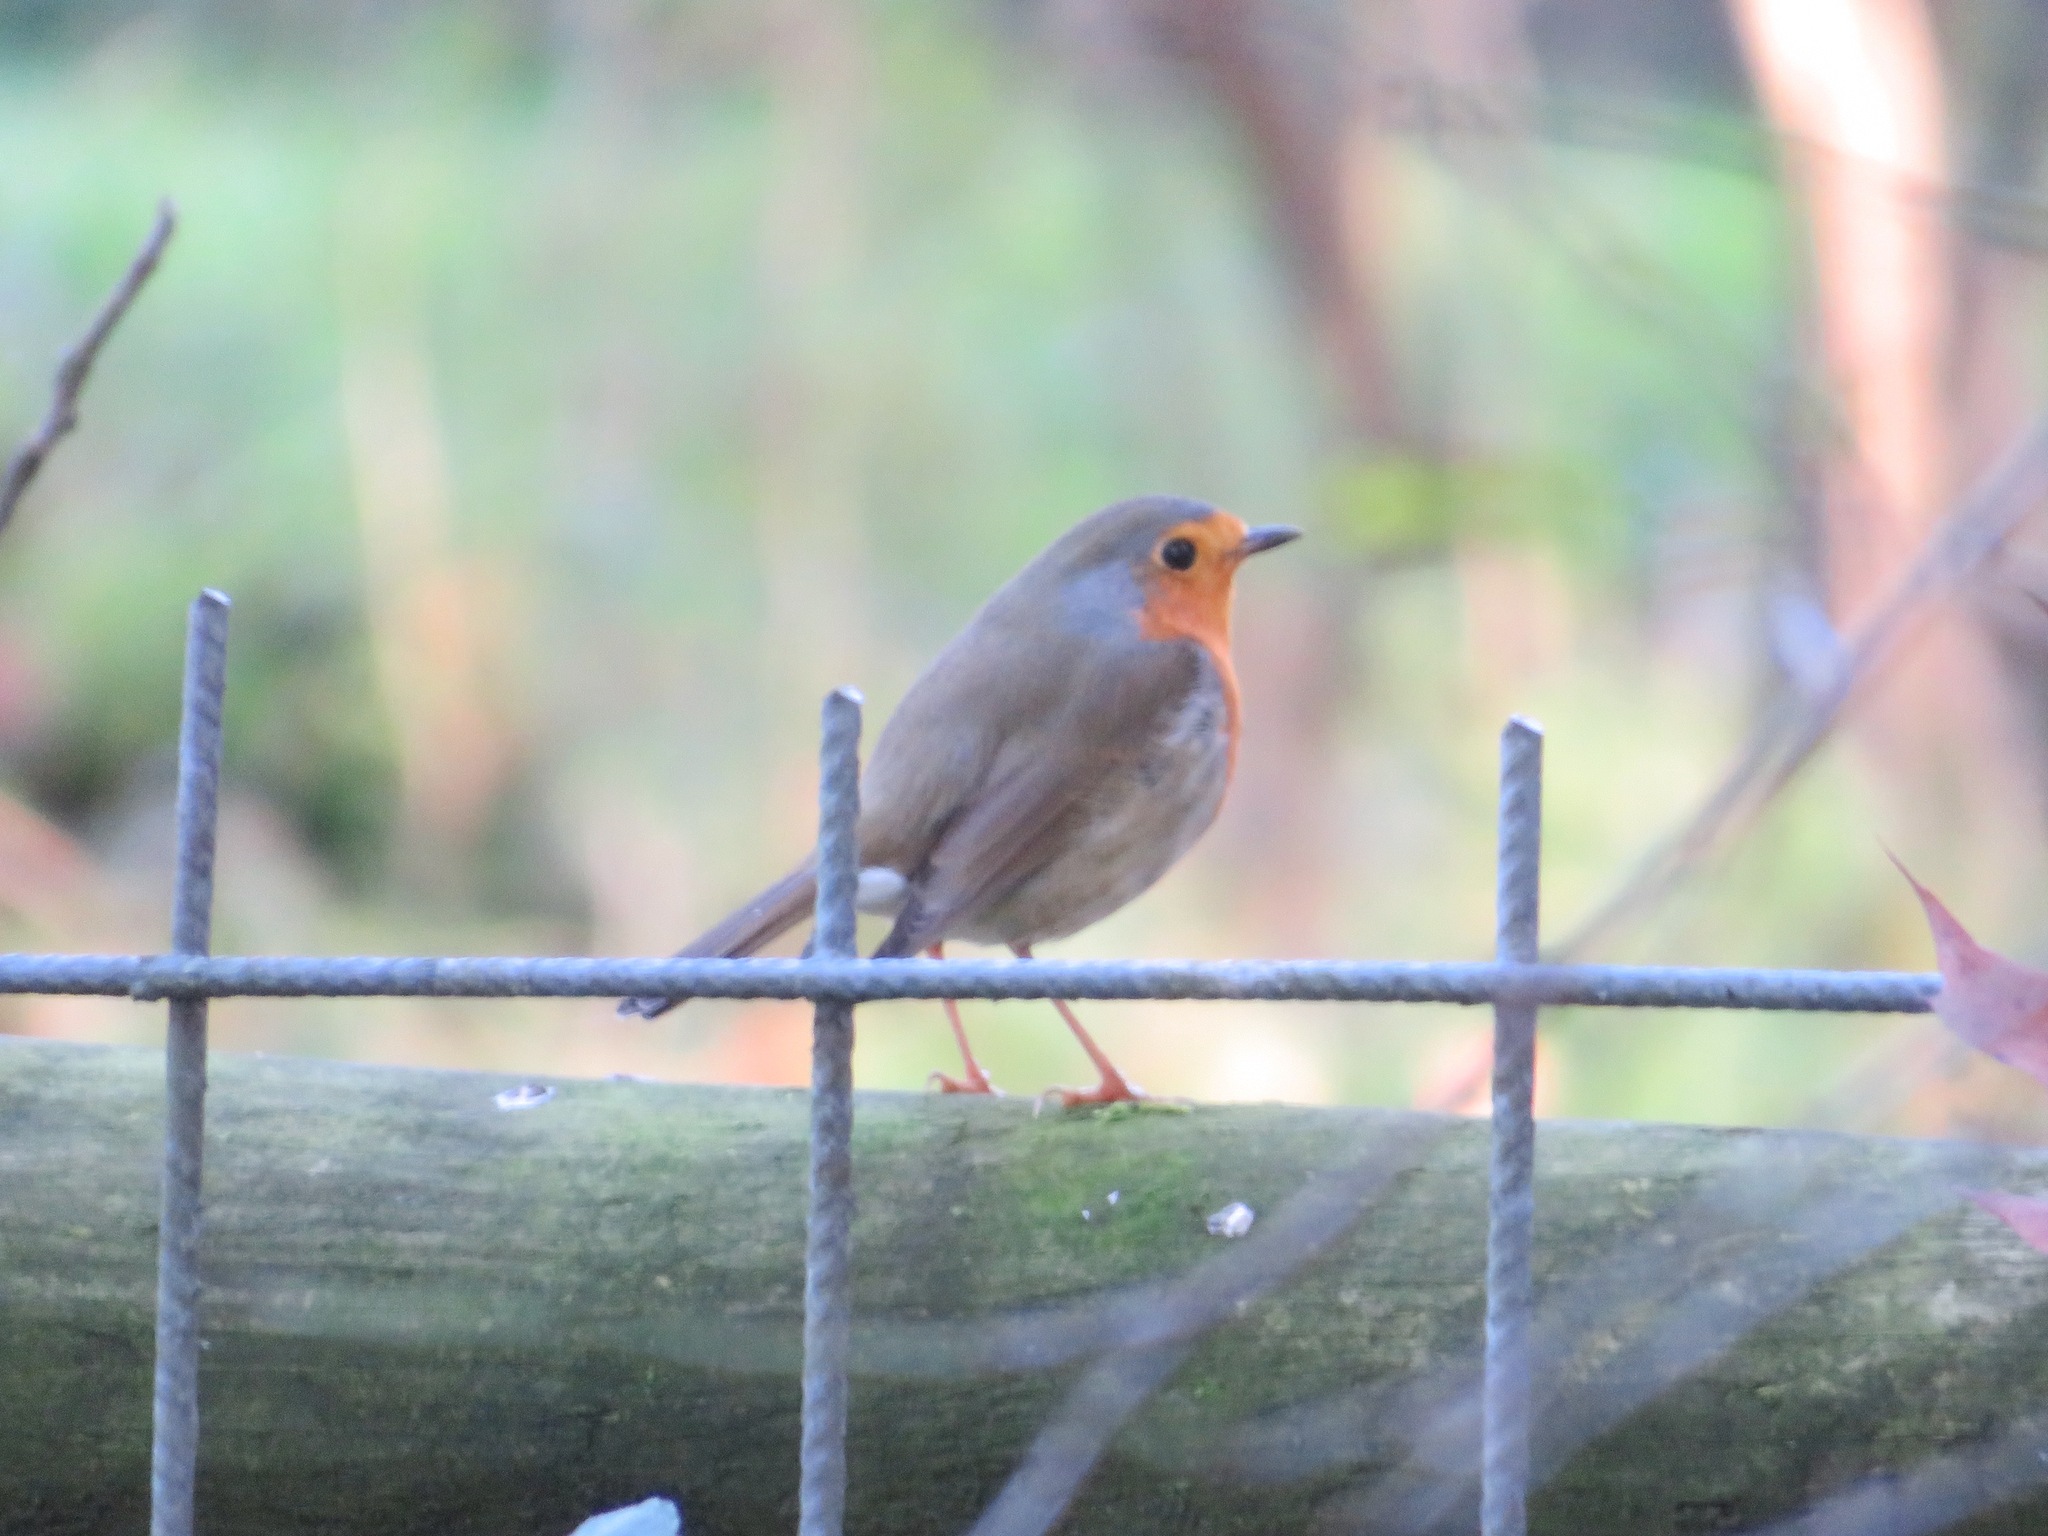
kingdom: Animalia
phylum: Chordata
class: Aves
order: Passeriformes
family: Muscicapidae
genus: Erithacus
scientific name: Erithacus rubecula
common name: European robin
